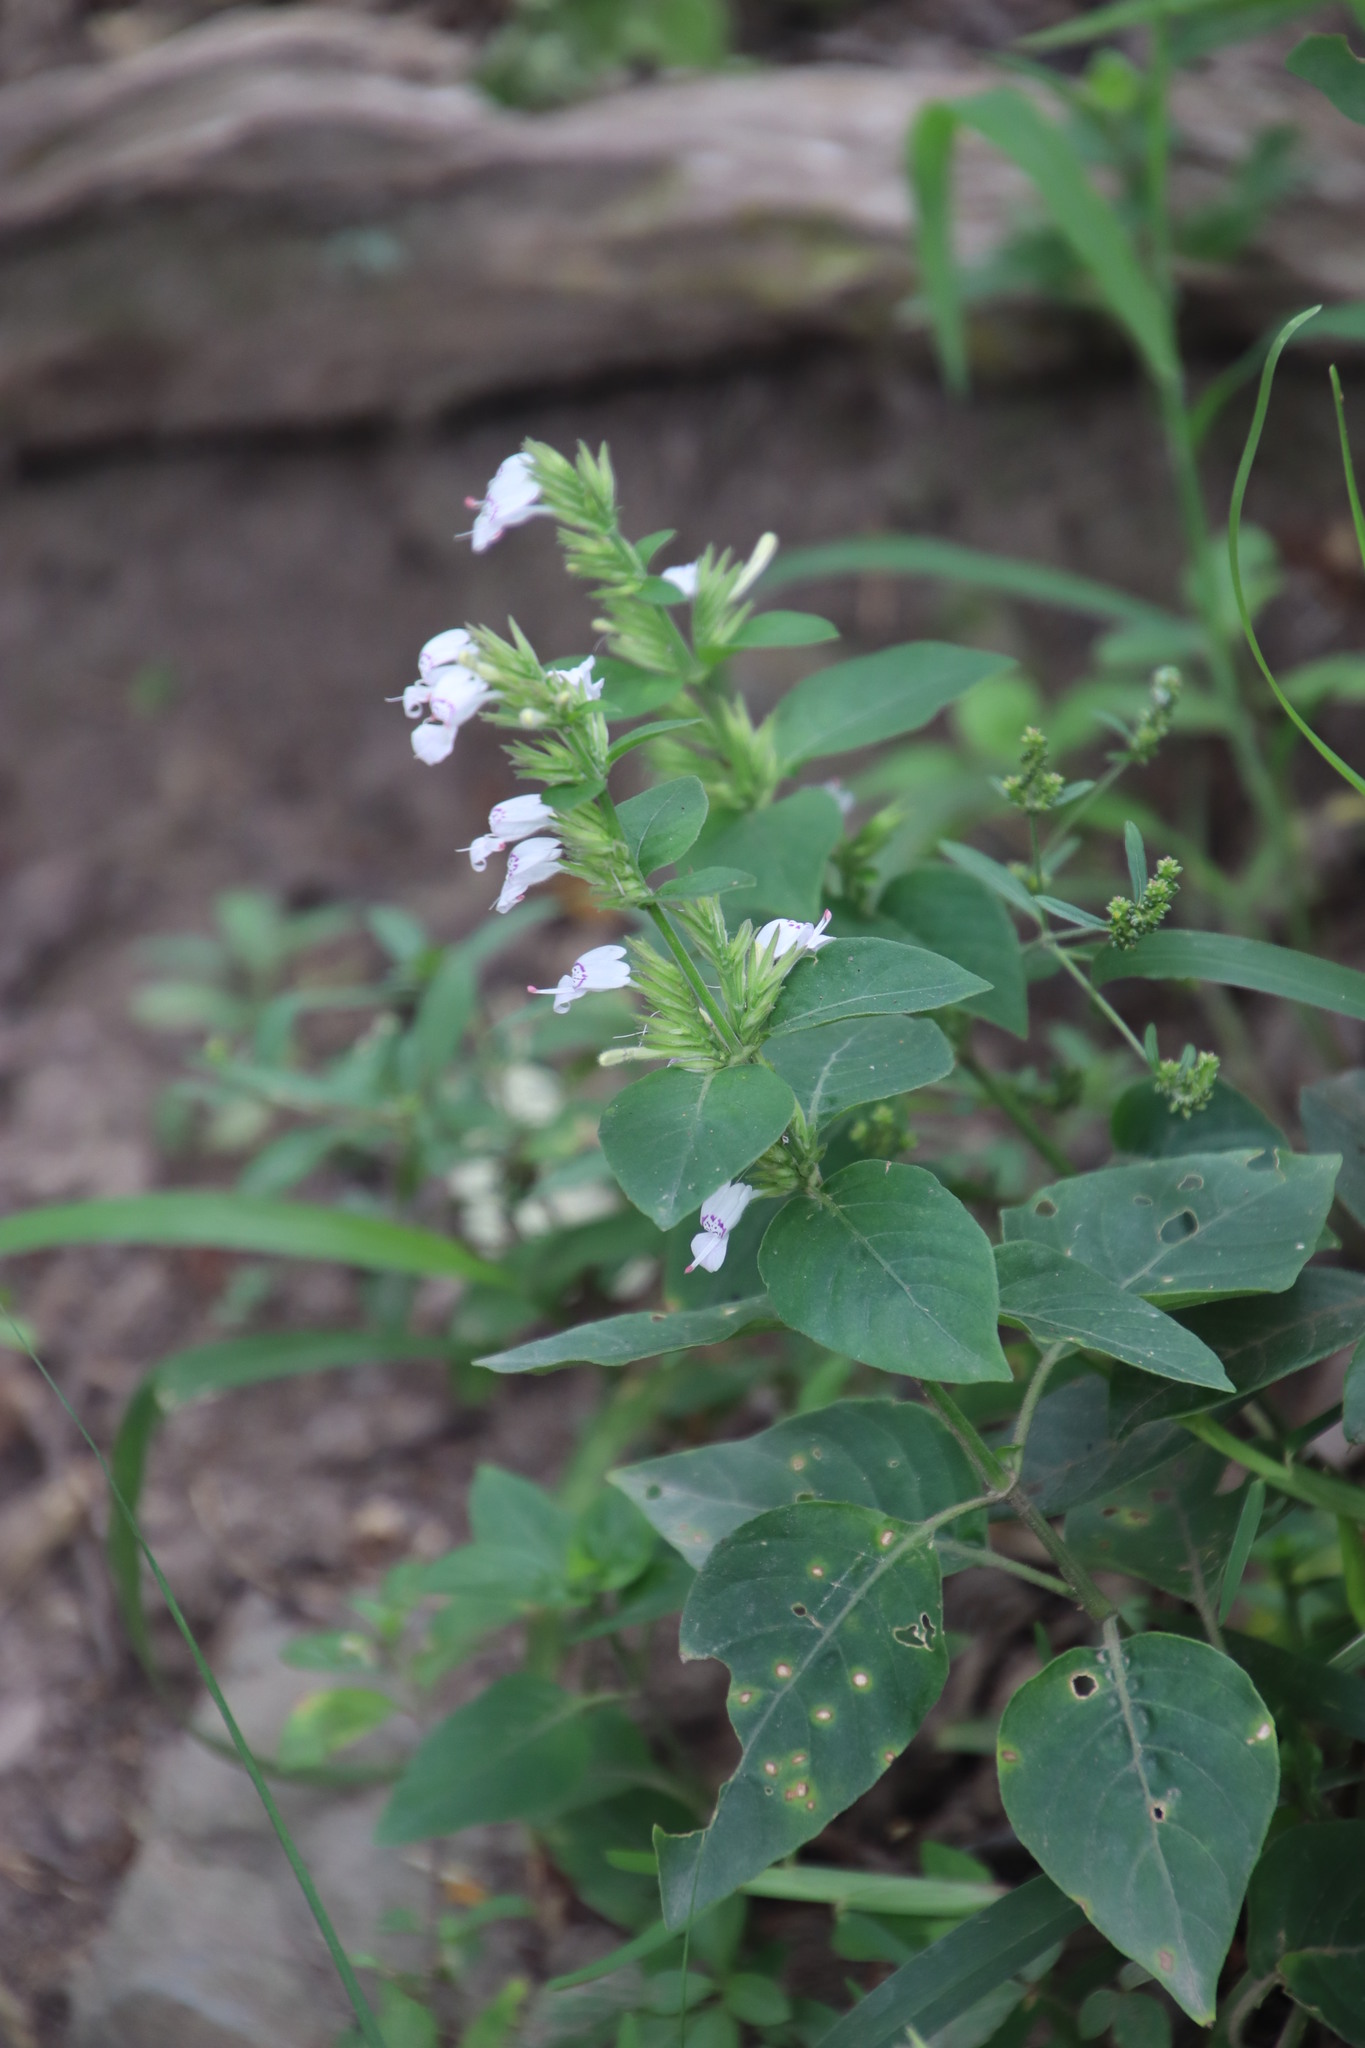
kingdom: Plantae
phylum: Tracheophyta
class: Magnoliopsida
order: Lamiales
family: Acanthaceae
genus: Hypoestes
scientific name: Hypoestes forskaolii
